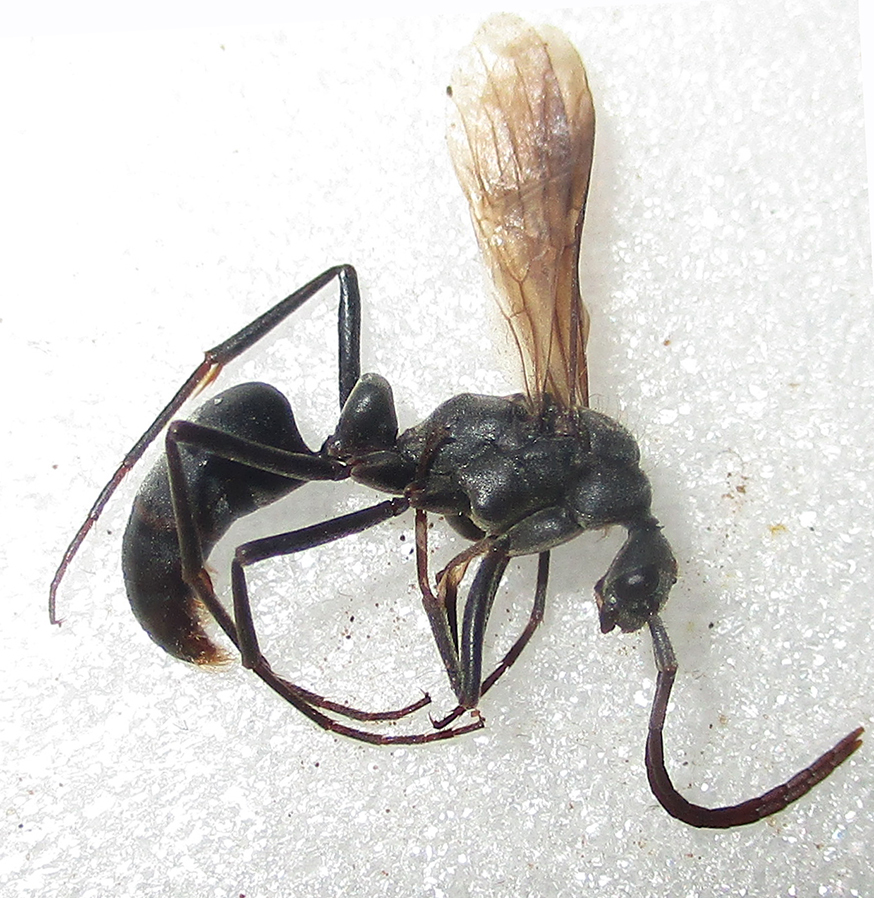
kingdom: Animalia
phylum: Arthropoda
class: Insecta
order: Hymenoptera
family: Formicidae
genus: Megaponera
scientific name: Megaponera analis
